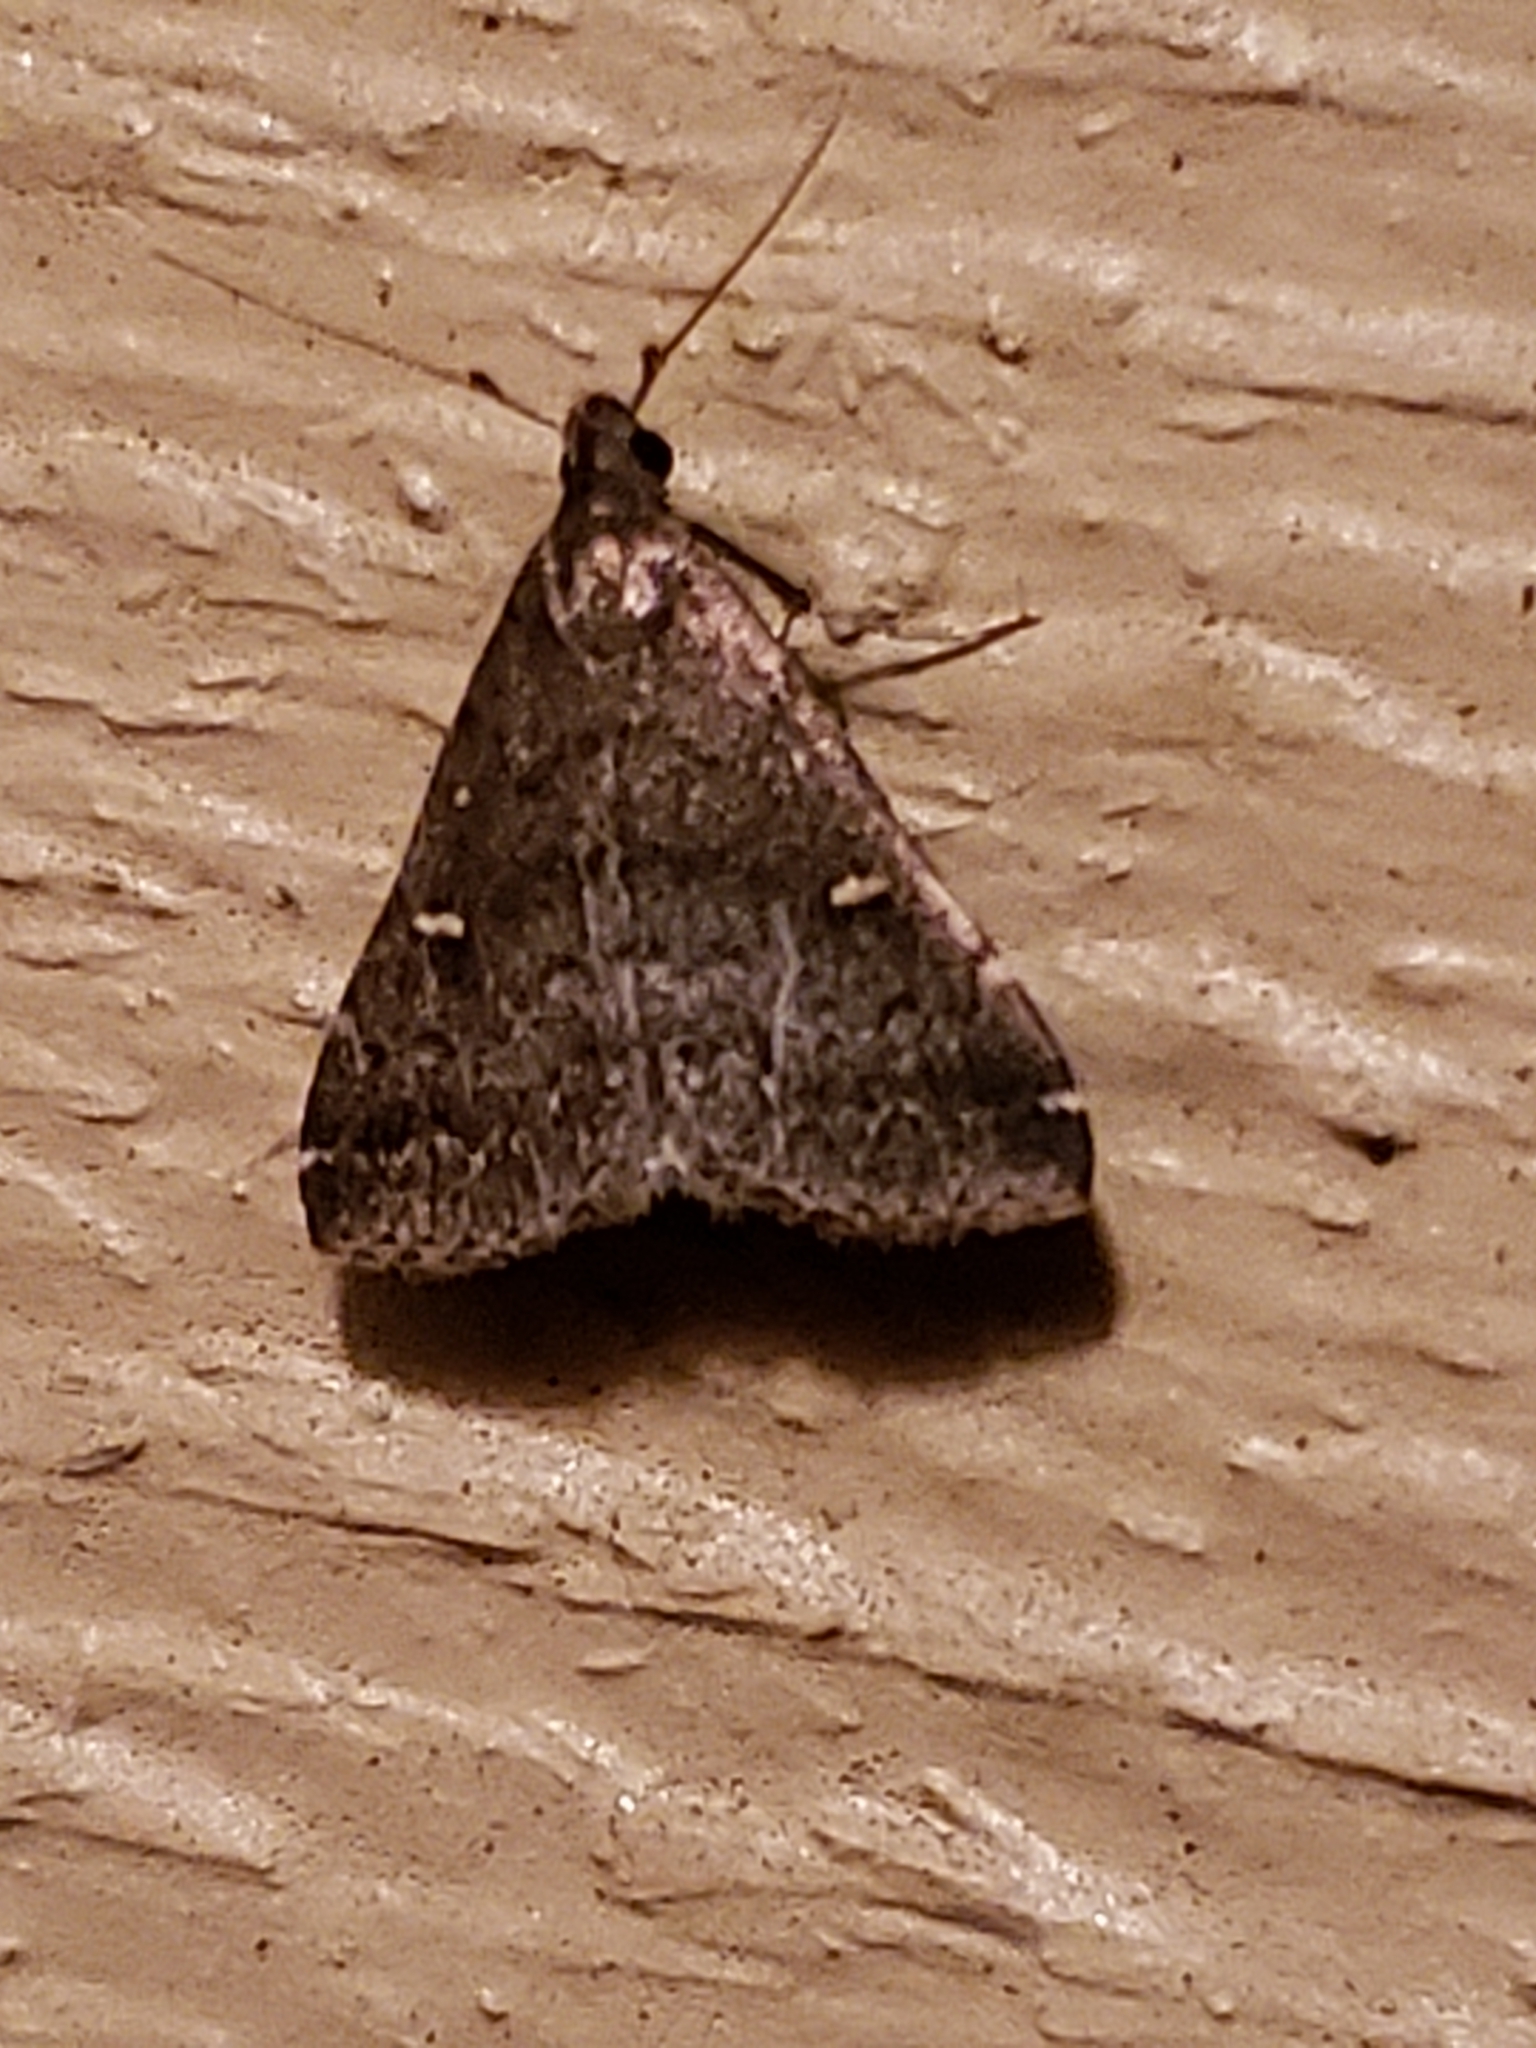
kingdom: Animalia
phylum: Arthropoda
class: Insecta
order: Lepidoptera
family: Erebidae
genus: Tetanolita
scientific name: Tetanolita mynesalis
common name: Smoky tetanolita moth
